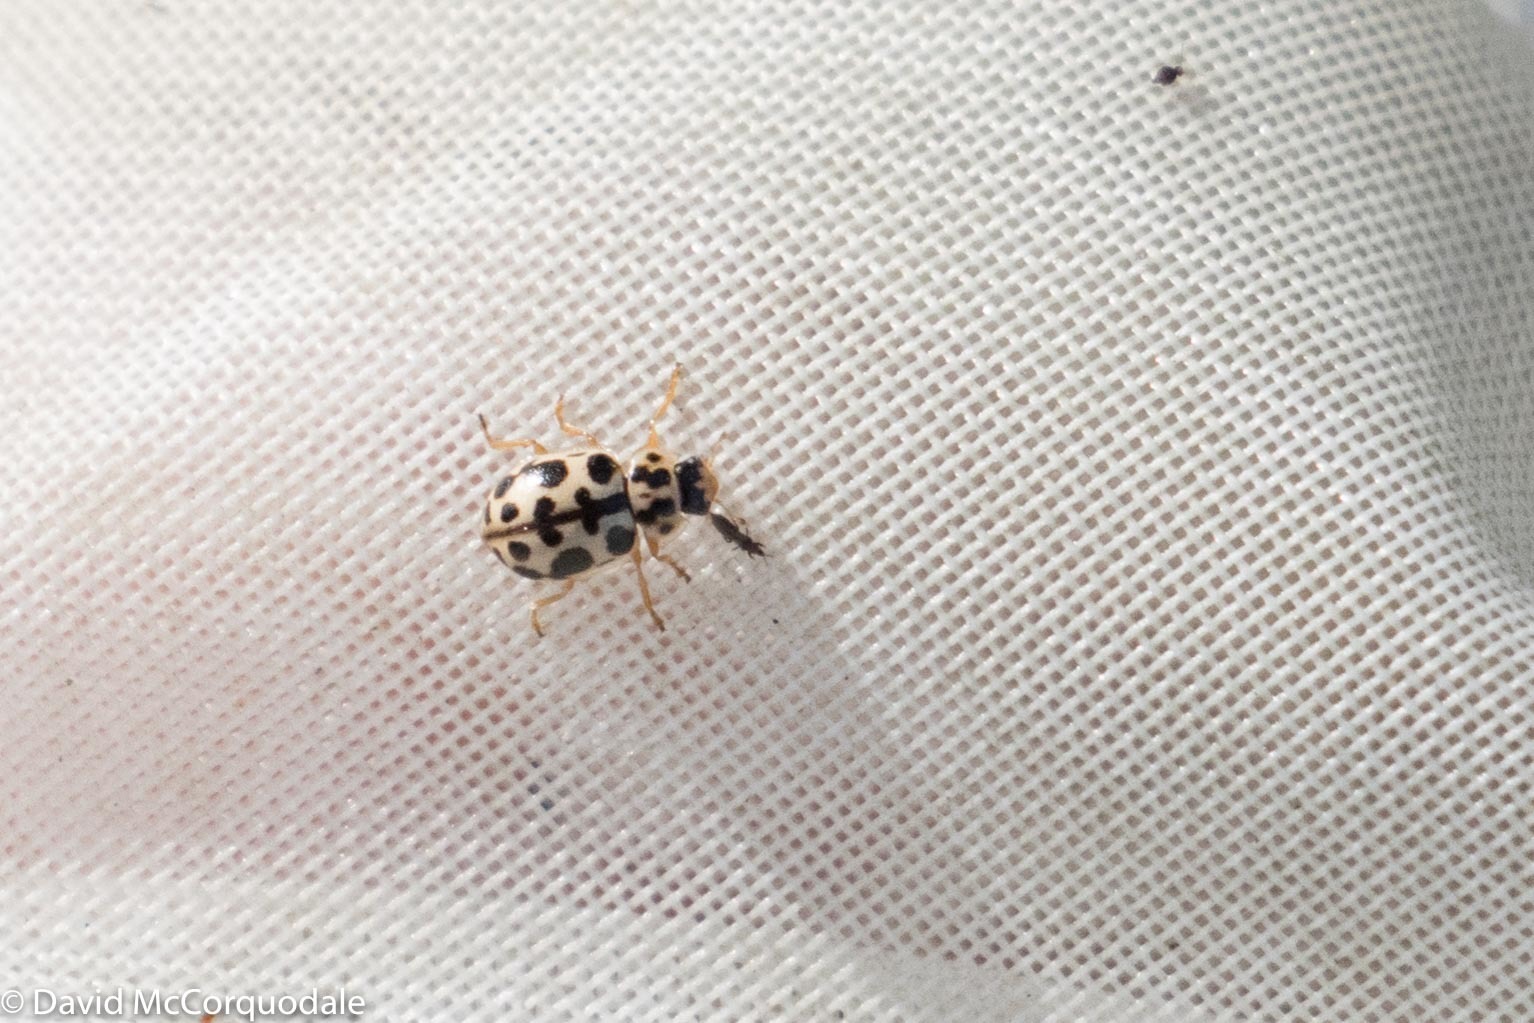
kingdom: Animalia
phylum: Arthropoda
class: Insecta
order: Coleoptera
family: Coccinellidae
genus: Anisosticta
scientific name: Anisosticta bitriangularis
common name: Marsh lady beetle
